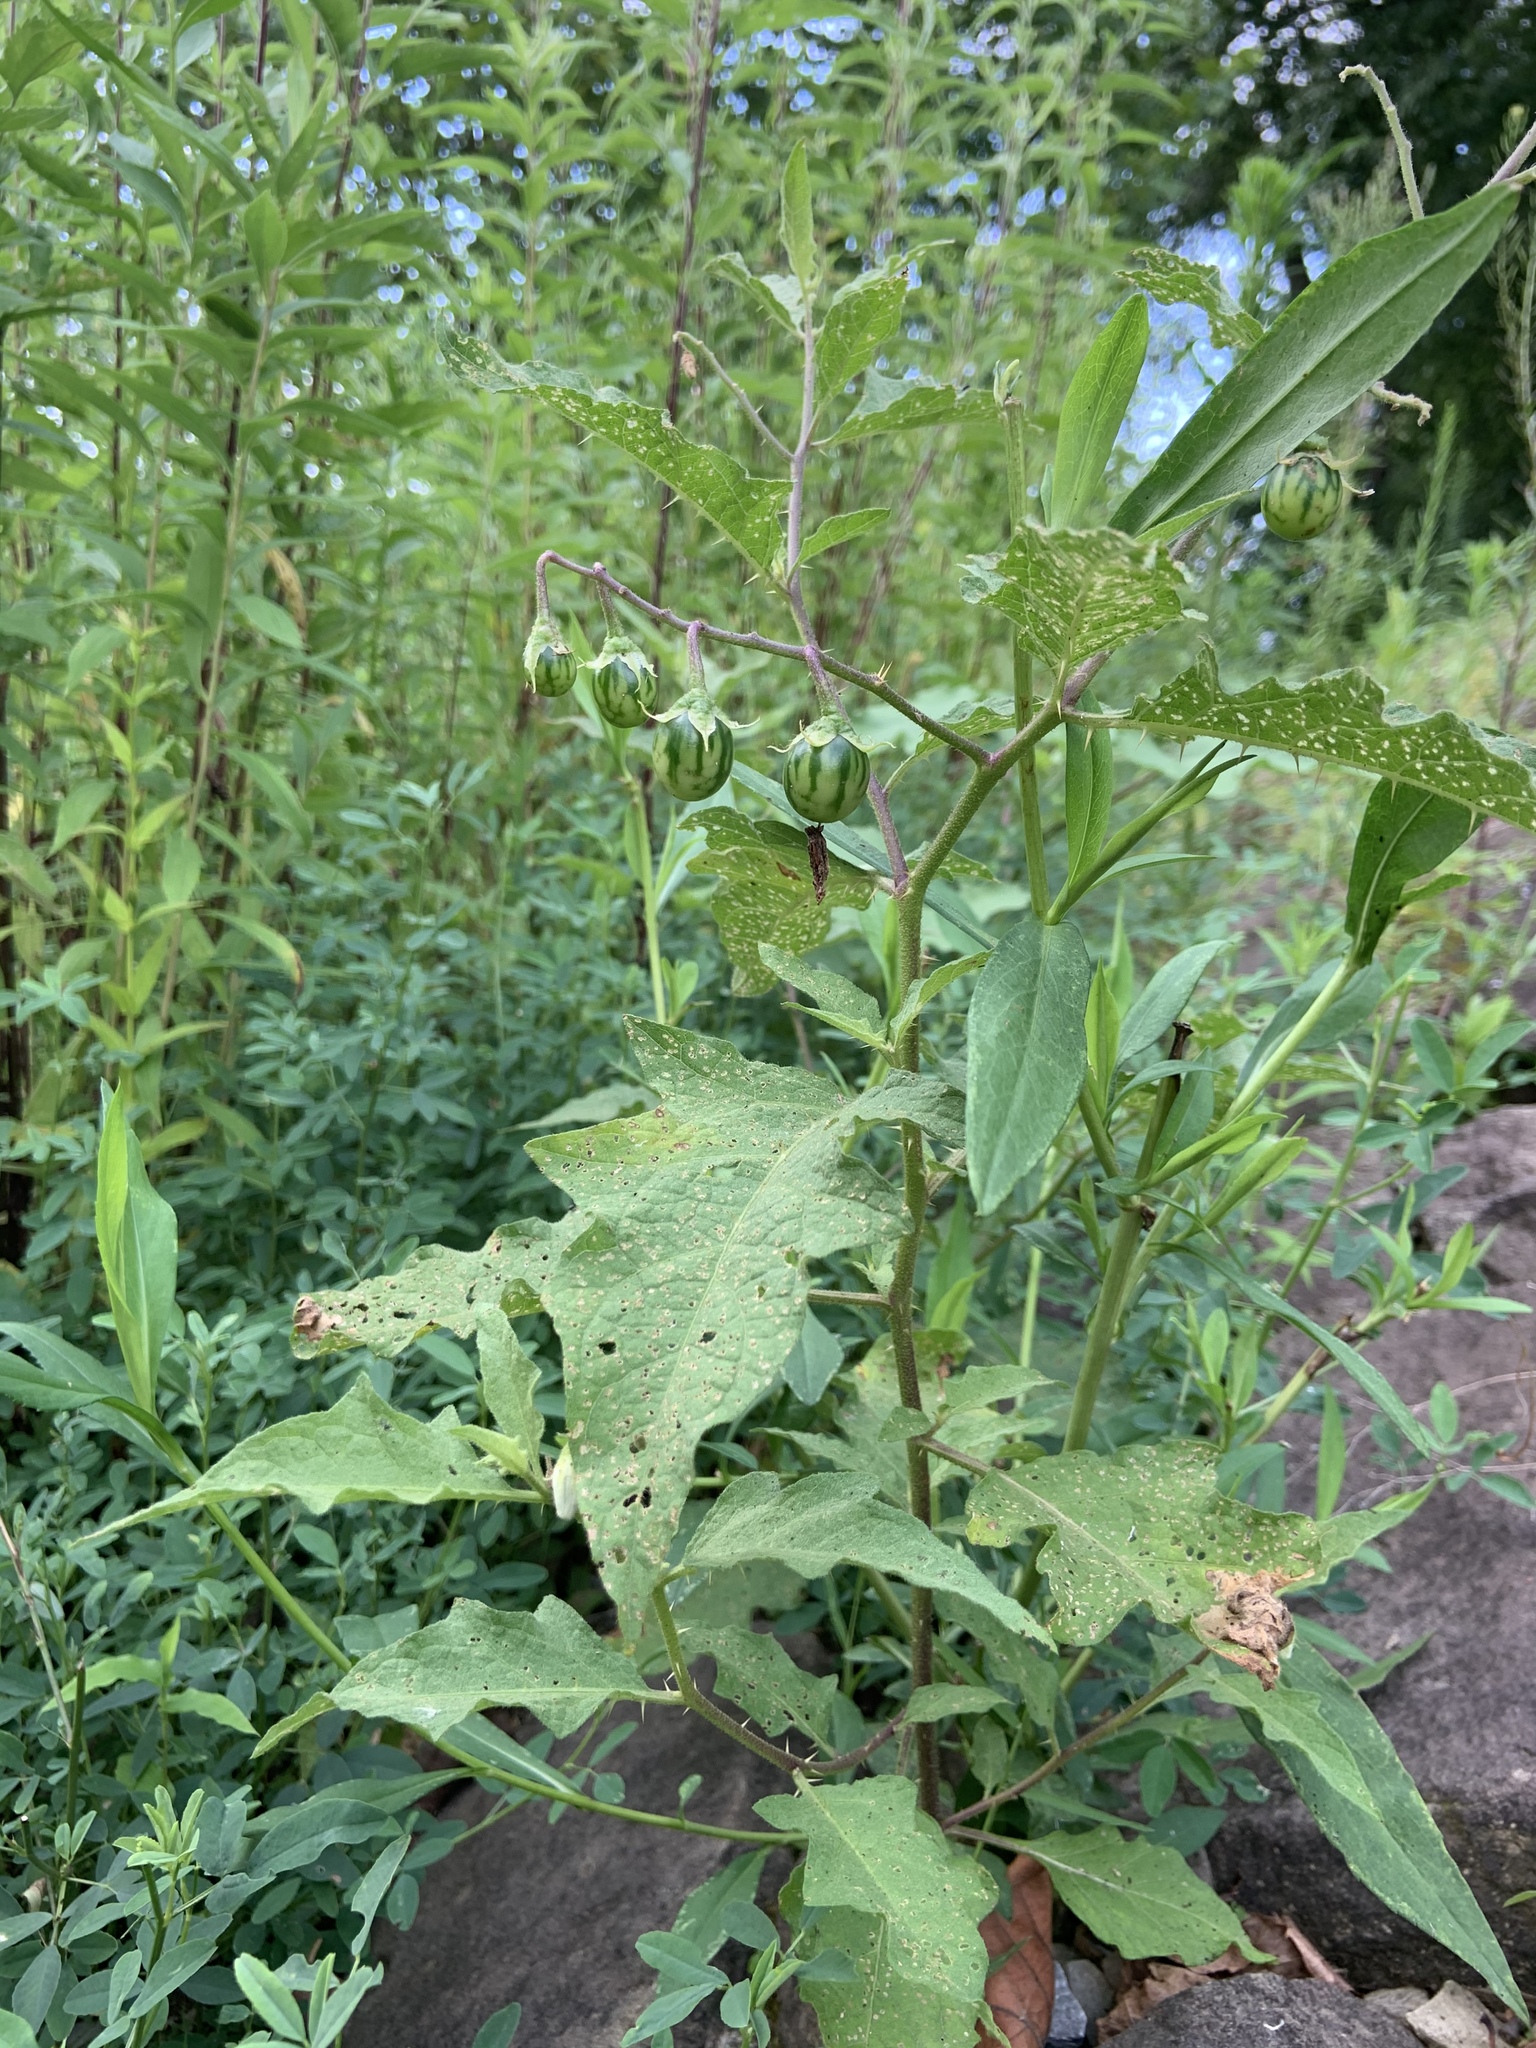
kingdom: Plantae
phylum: Tracheophyta
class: Magnoliopsida
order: Solanales
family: Solanaceae
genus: Solanum
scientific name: Solanum carolinense
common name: Horse-nettle
